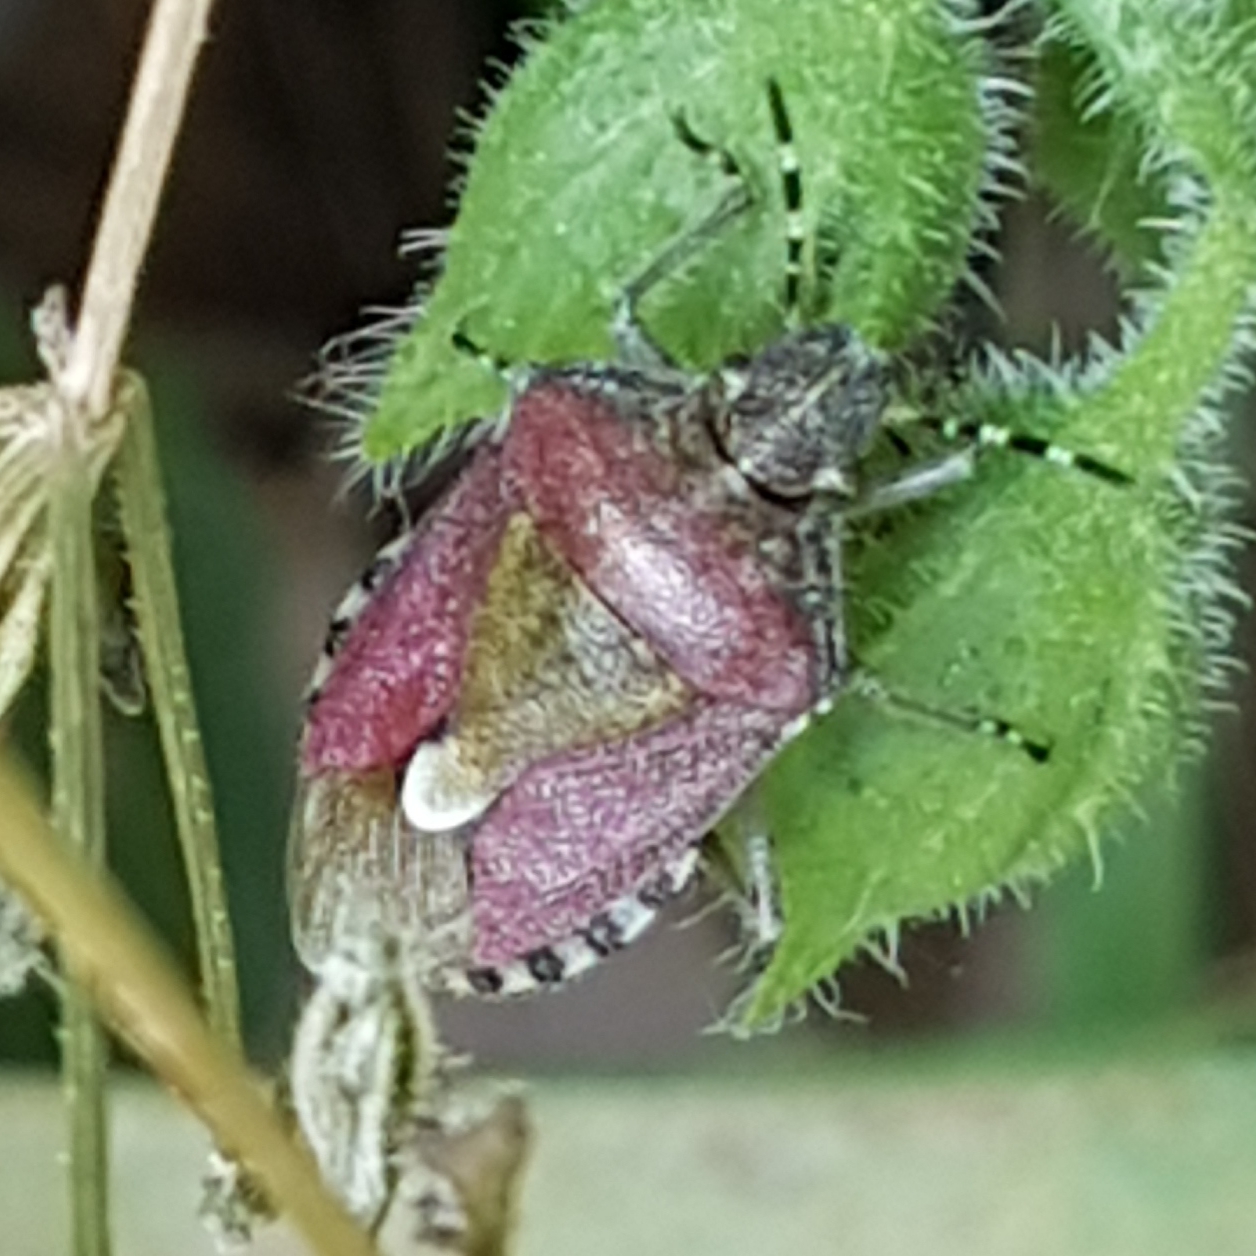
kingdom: Animalia
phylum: Arthropoda
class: Insecta
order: Hemiptera
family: Pentatomidae
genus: Dolycoris
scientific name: Dolycoris baccarum
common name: Sloe bug
